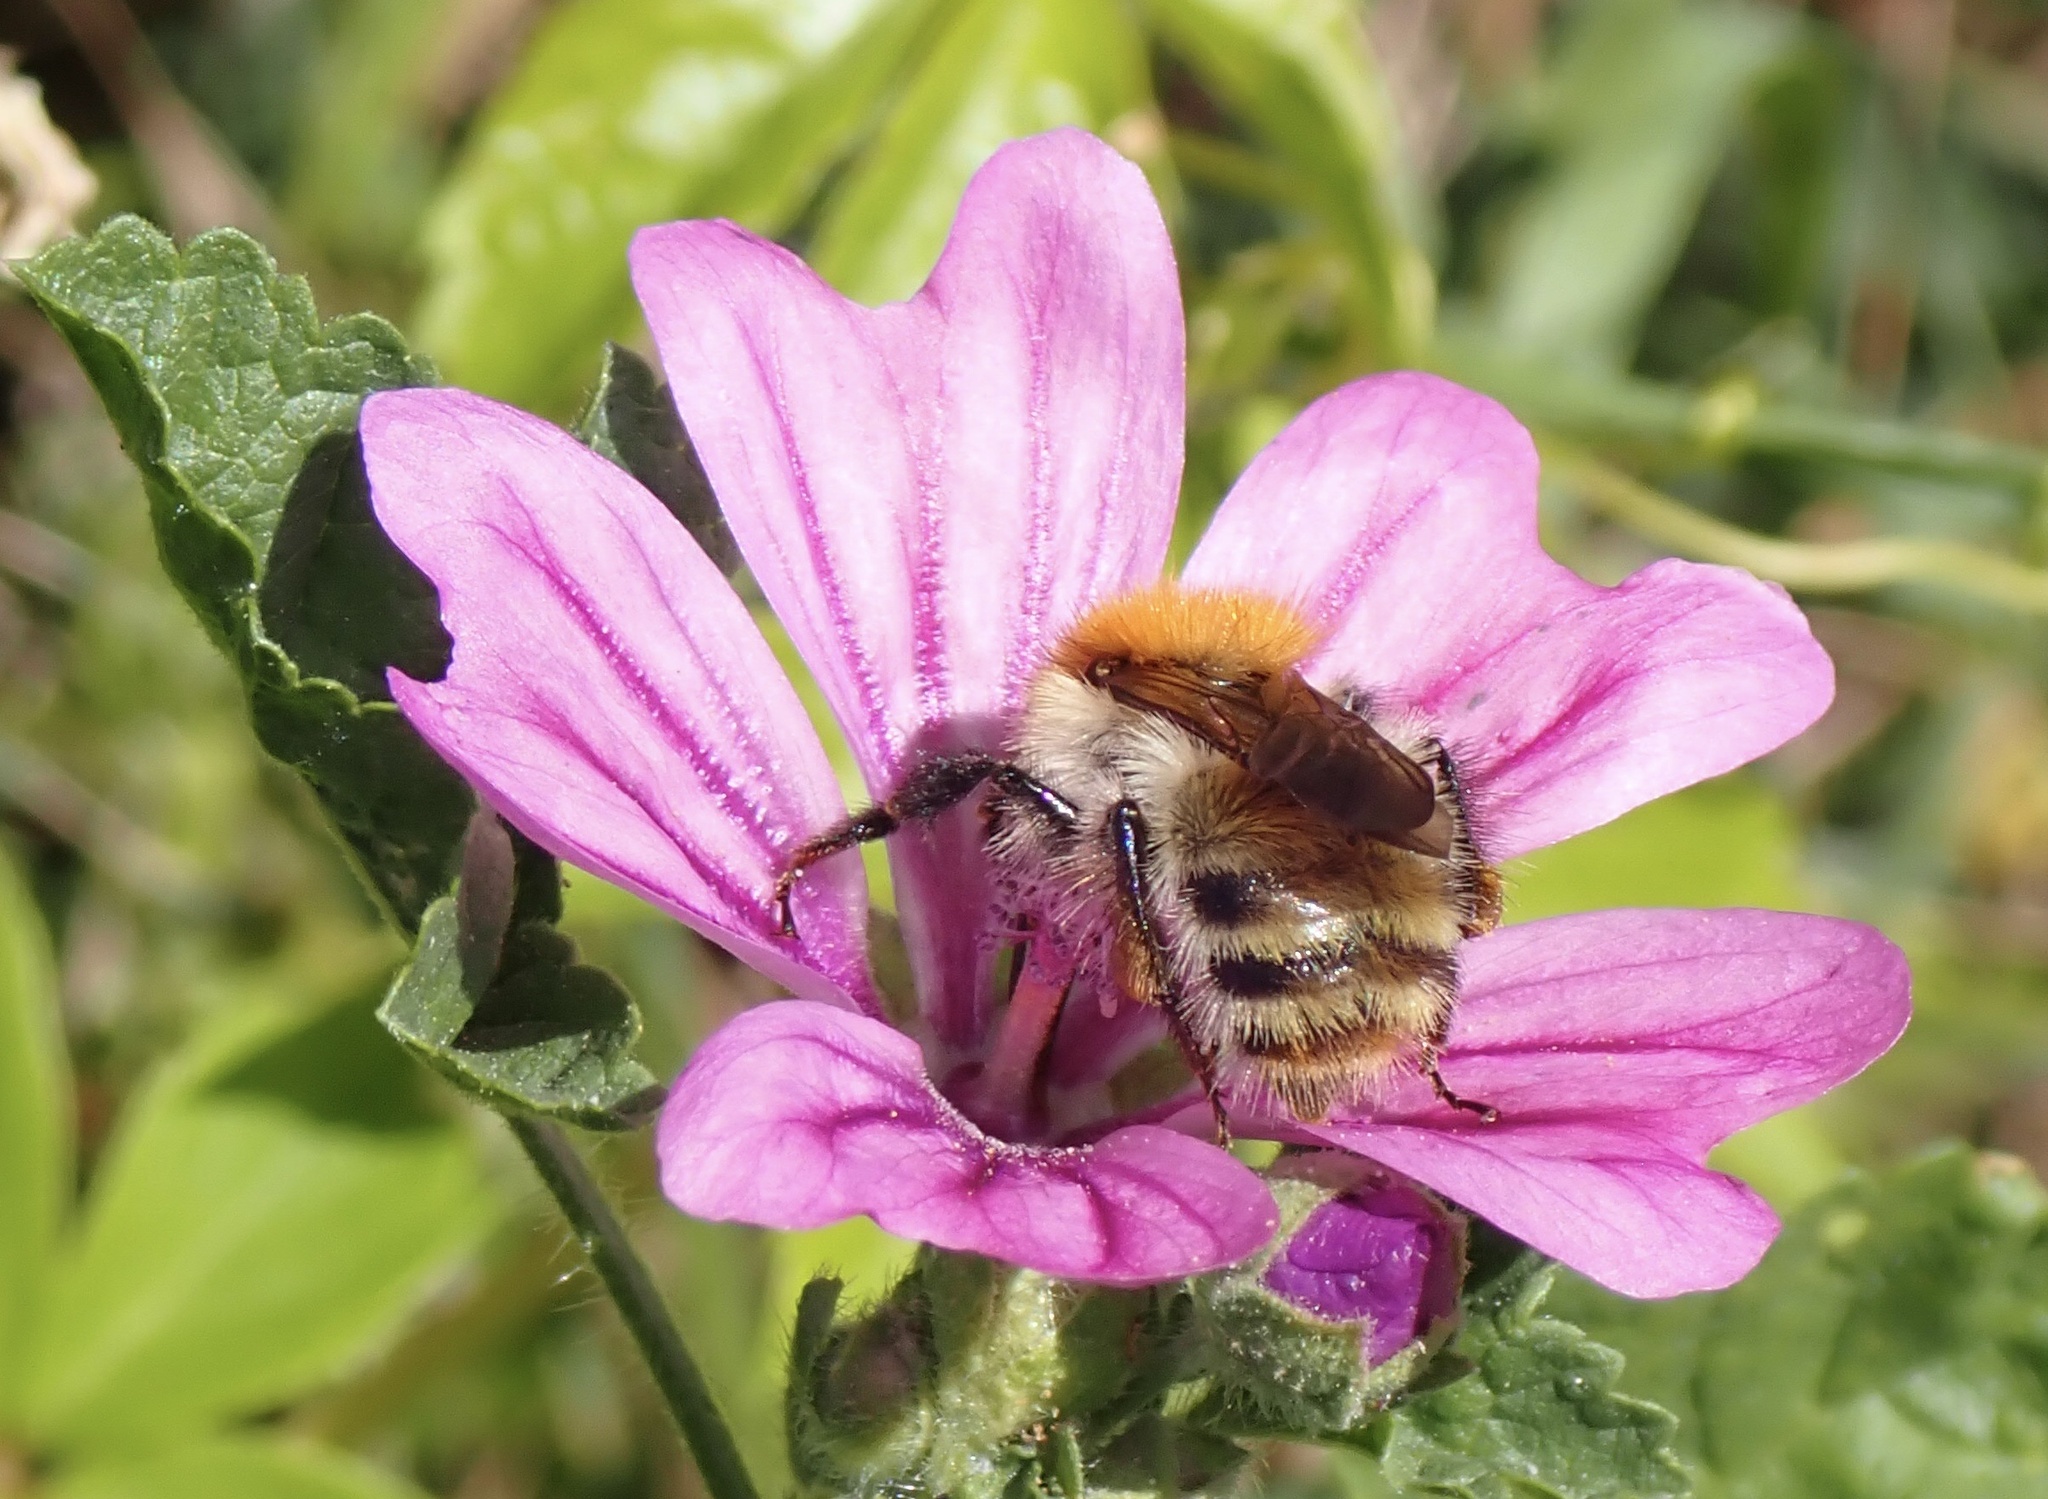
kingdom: Animalia
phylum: Arthropoda
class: Insecta
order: Hymenoptera
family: Apidae
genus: Bombus
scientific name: Bombus pascuorum
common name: Common carder bee
